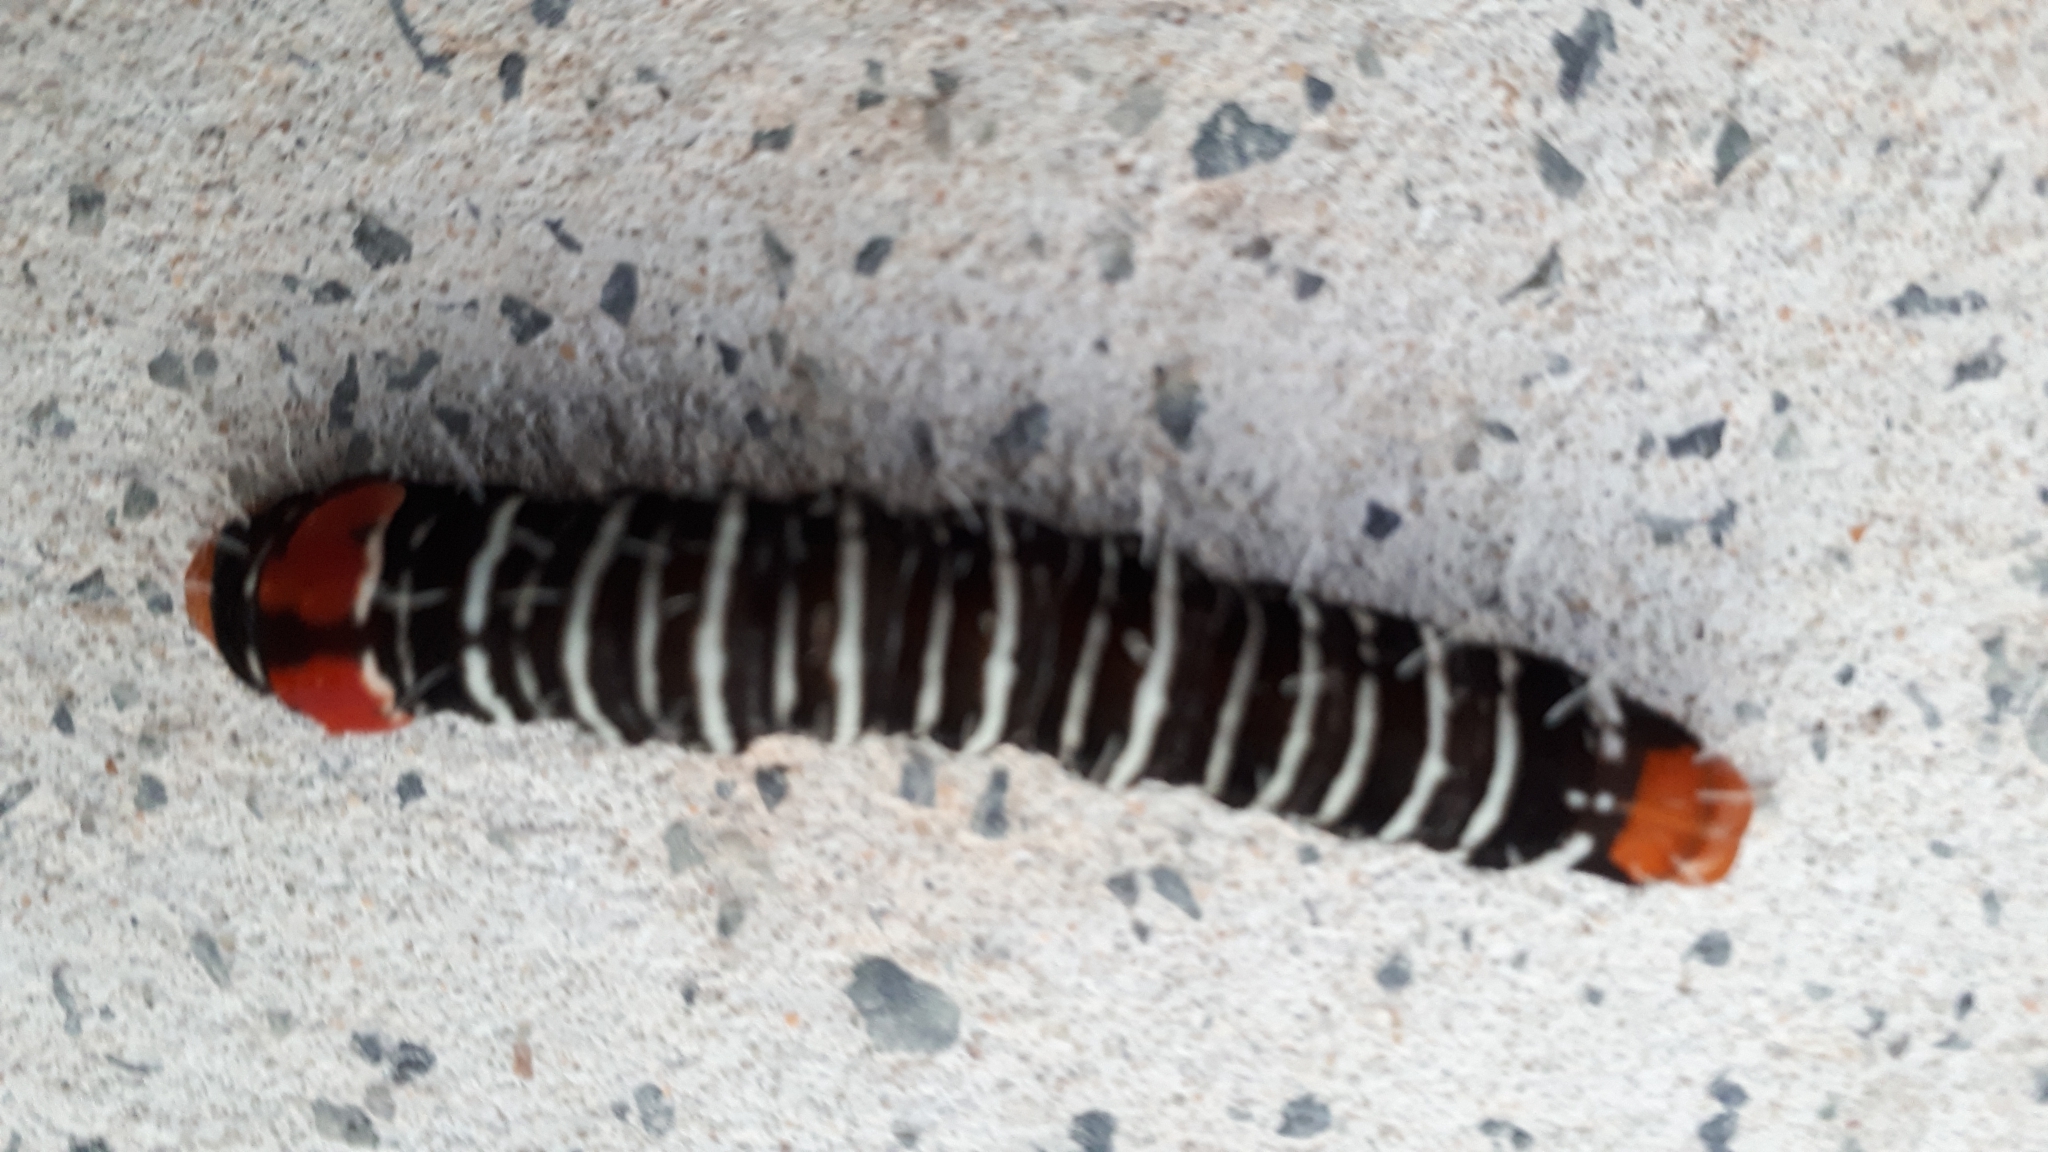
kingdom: Animalia
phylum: Arthropoda
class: Insecta
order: Lepidoptera
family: Noctuidae
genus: Comocrus
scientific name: Comocrus behri
